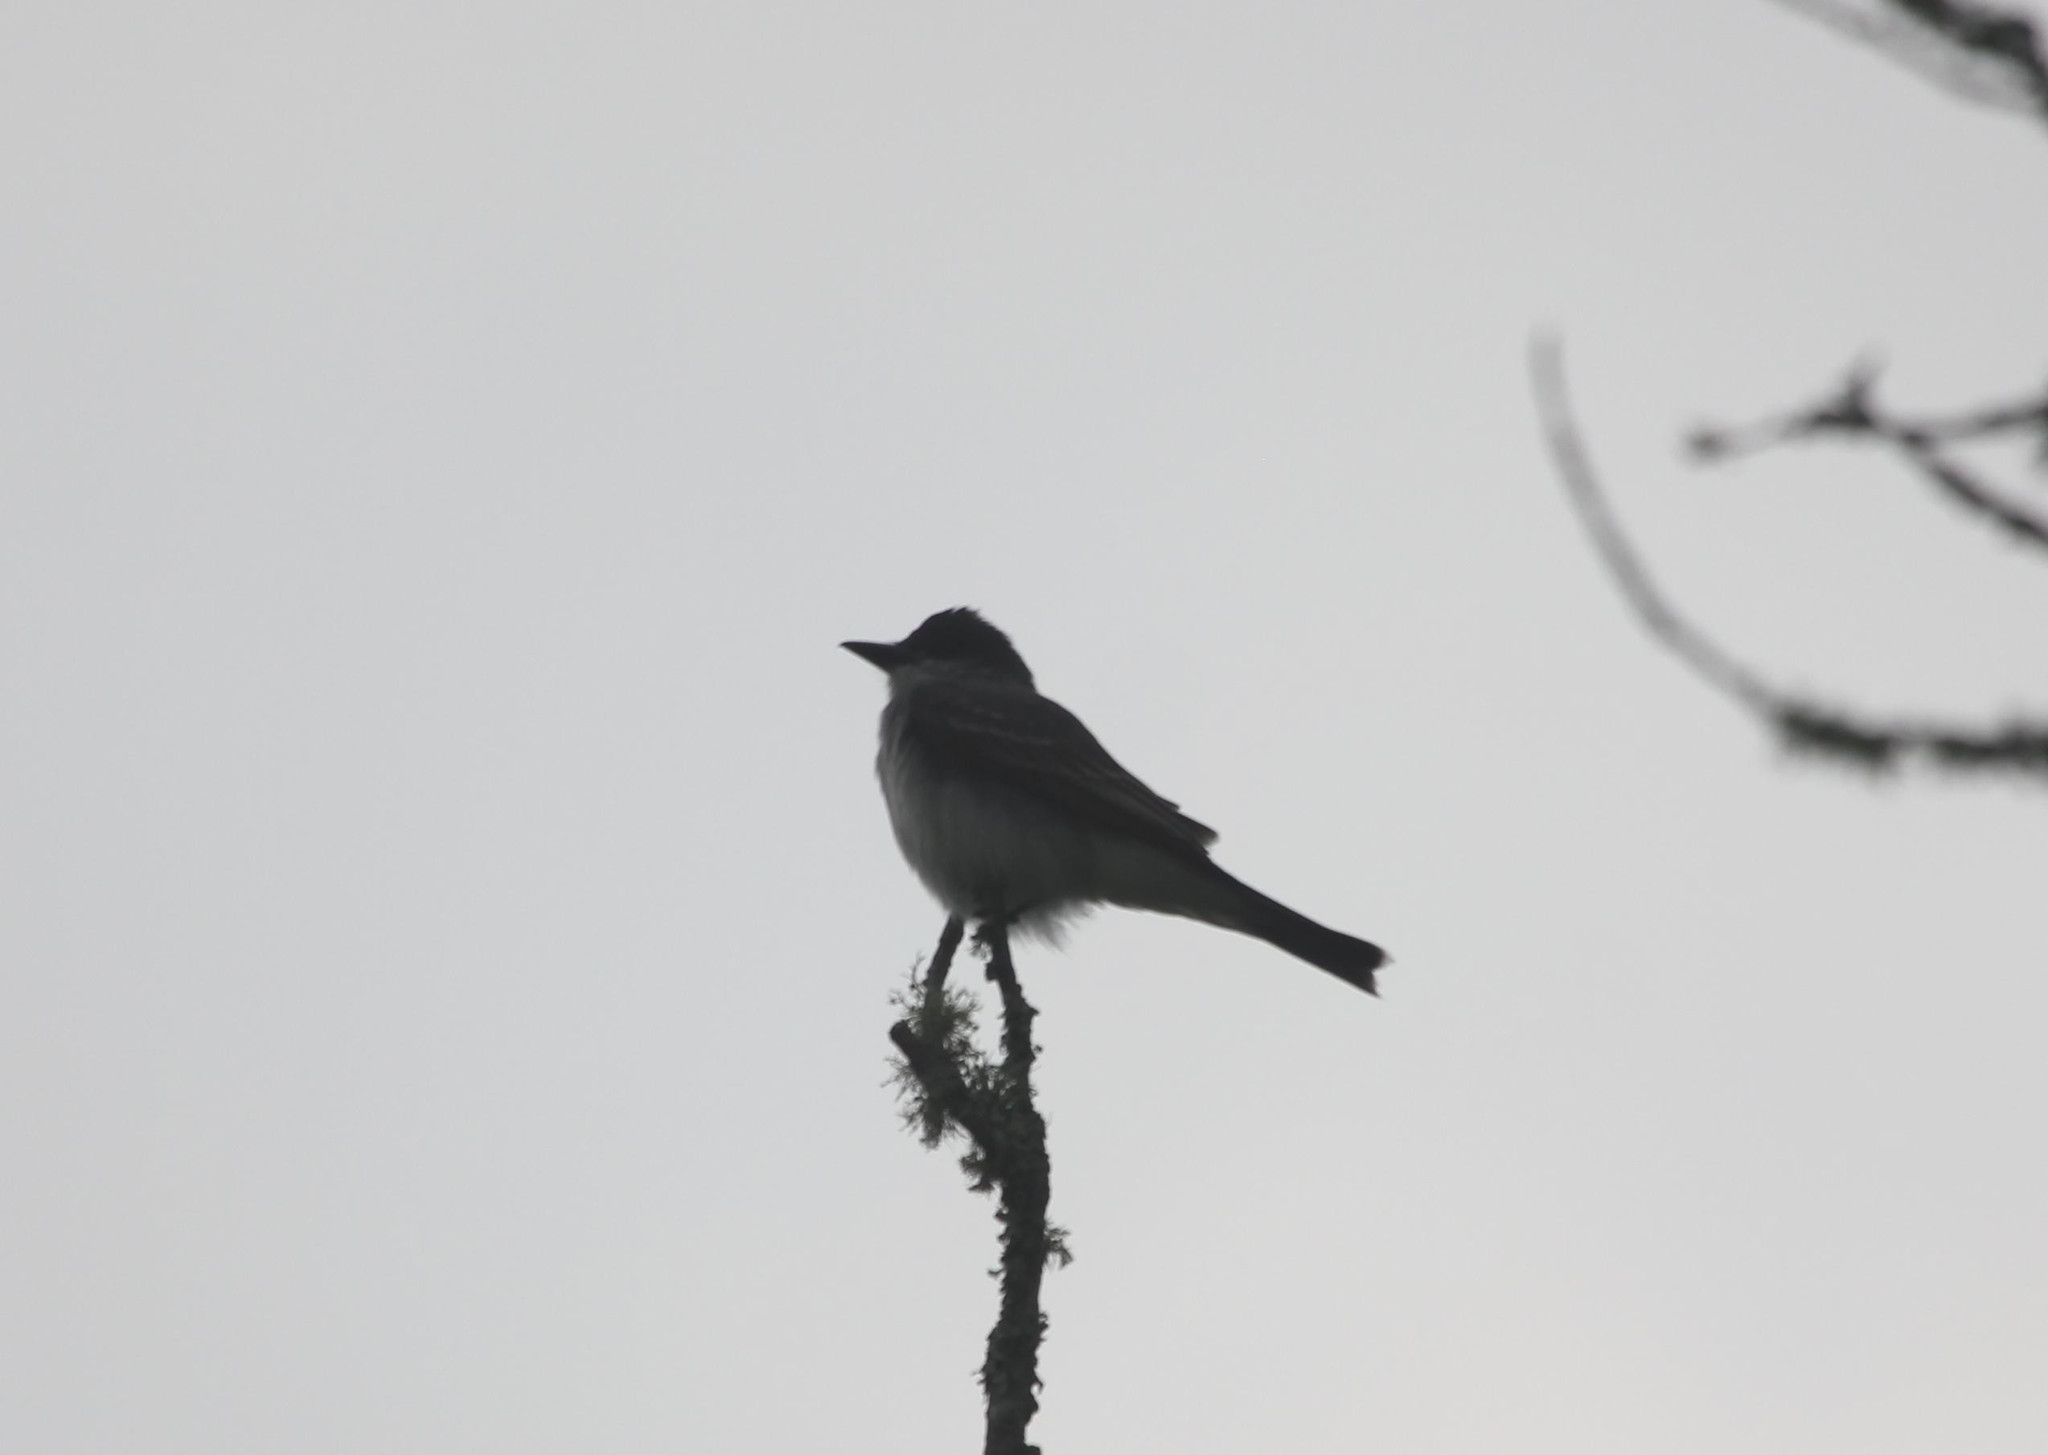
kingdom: Animalia
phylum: Chordata
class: Aves
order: Passeriformes
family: Tyrannidae
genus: Tyrannus
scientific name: Tyrannus dominicensis
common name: Gray kingbird
